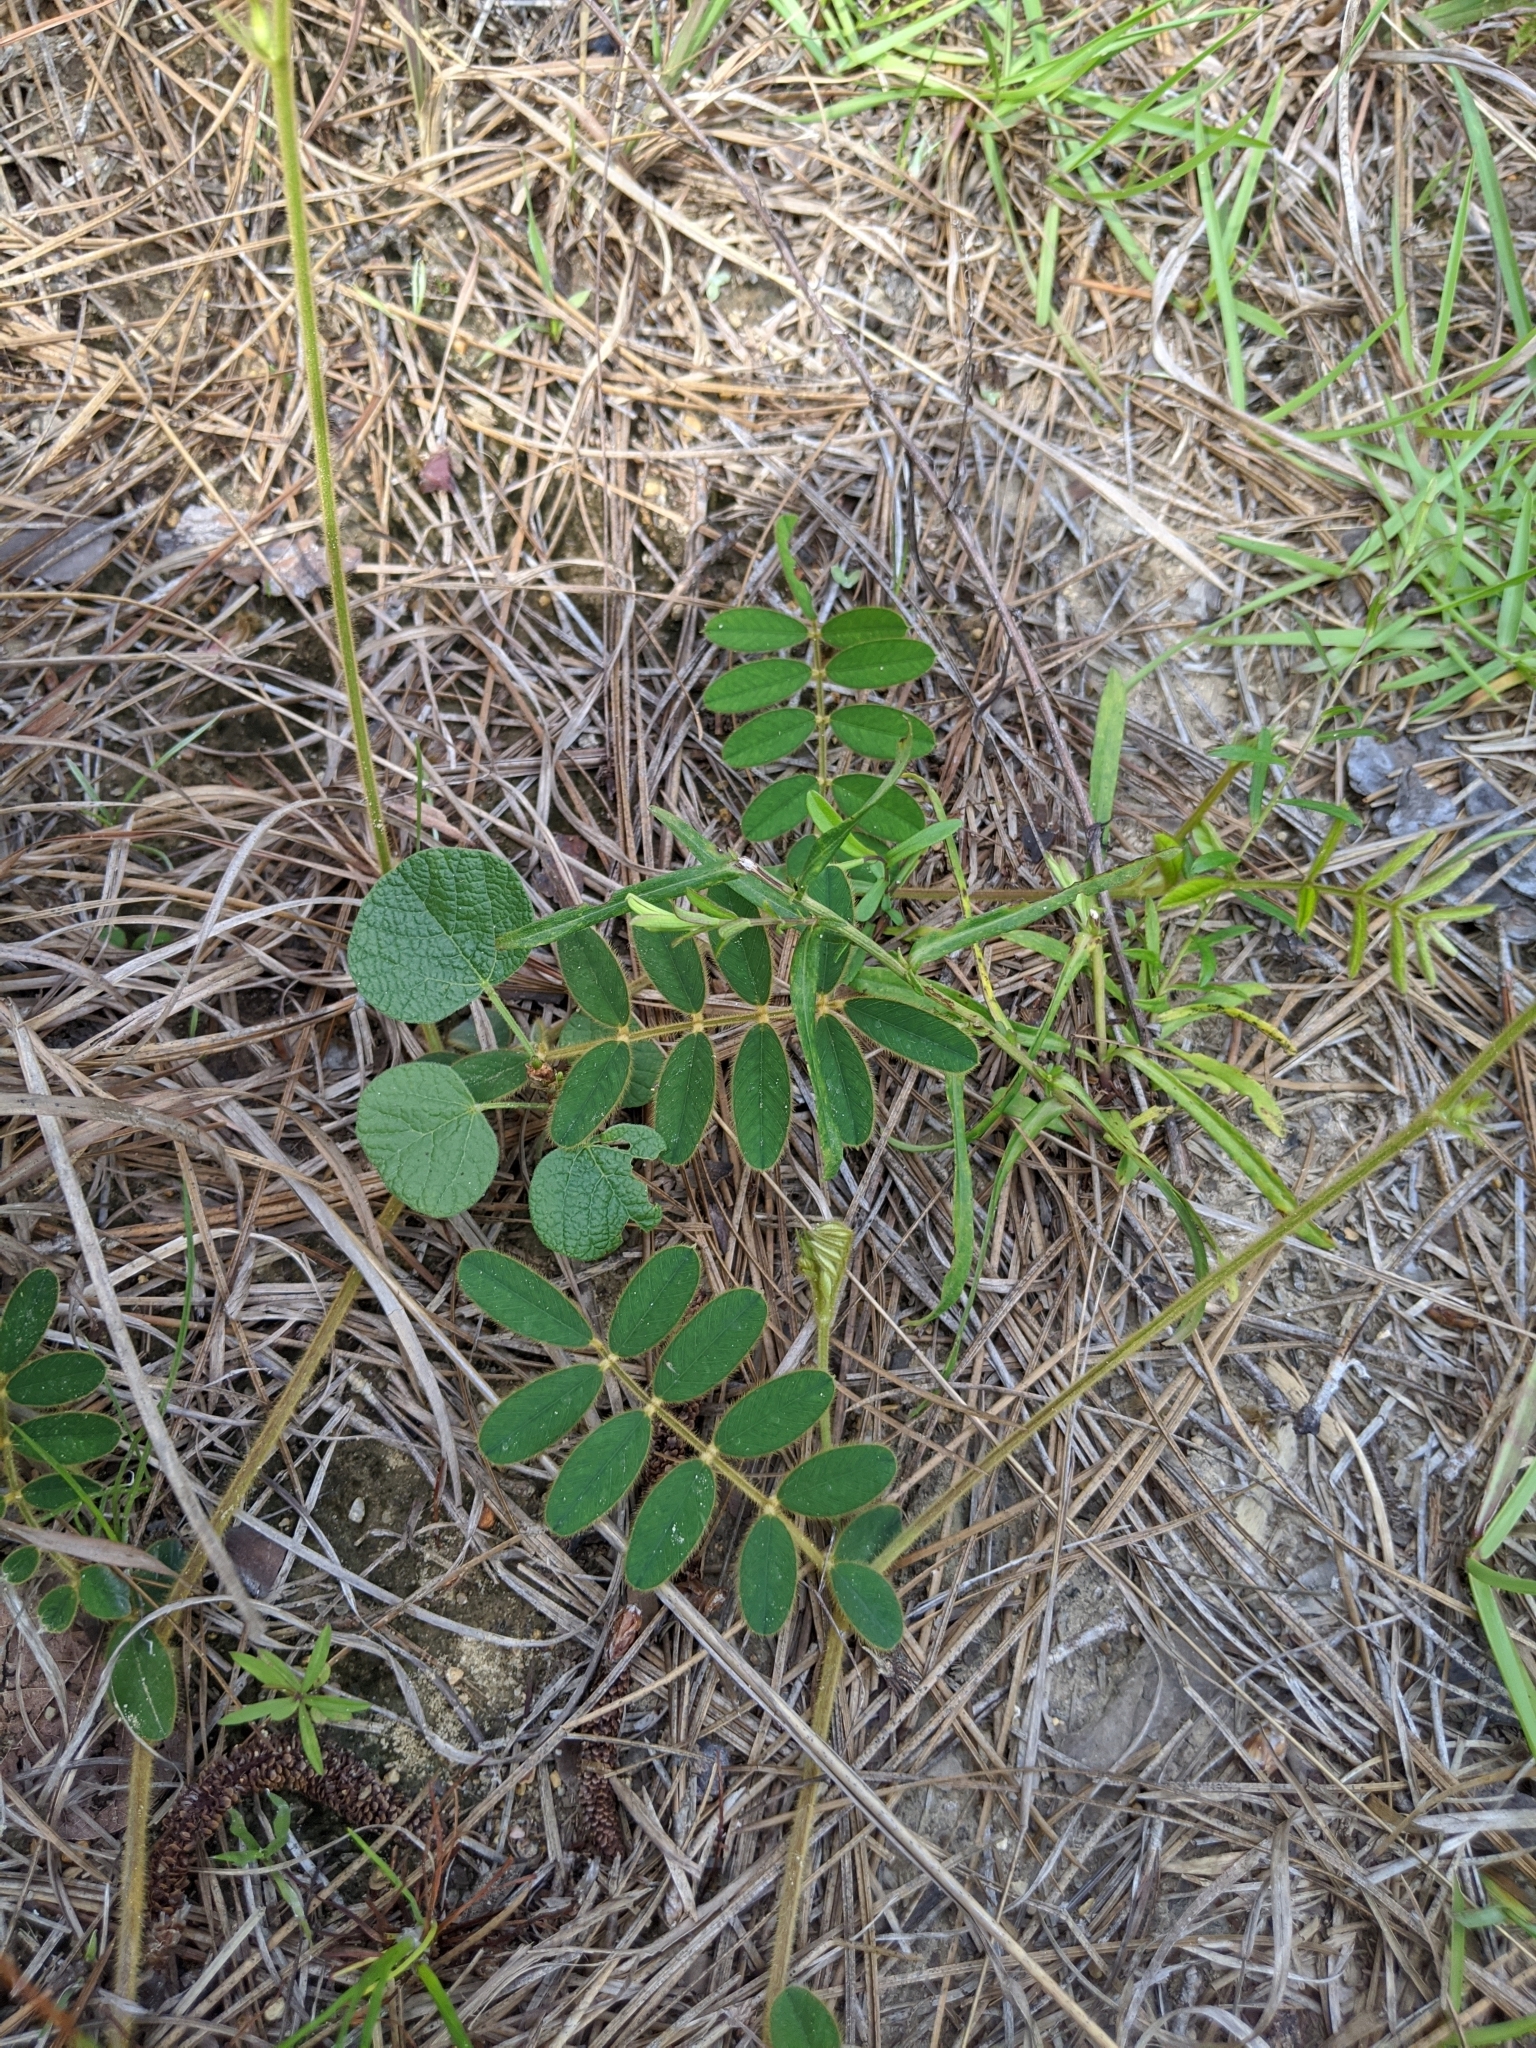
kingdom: Plantae
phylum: Tracheophyta
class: Magnoliopsida
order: Fabales
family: Fabaceae
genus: Tephrosia
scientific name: Tephrosia spicata
